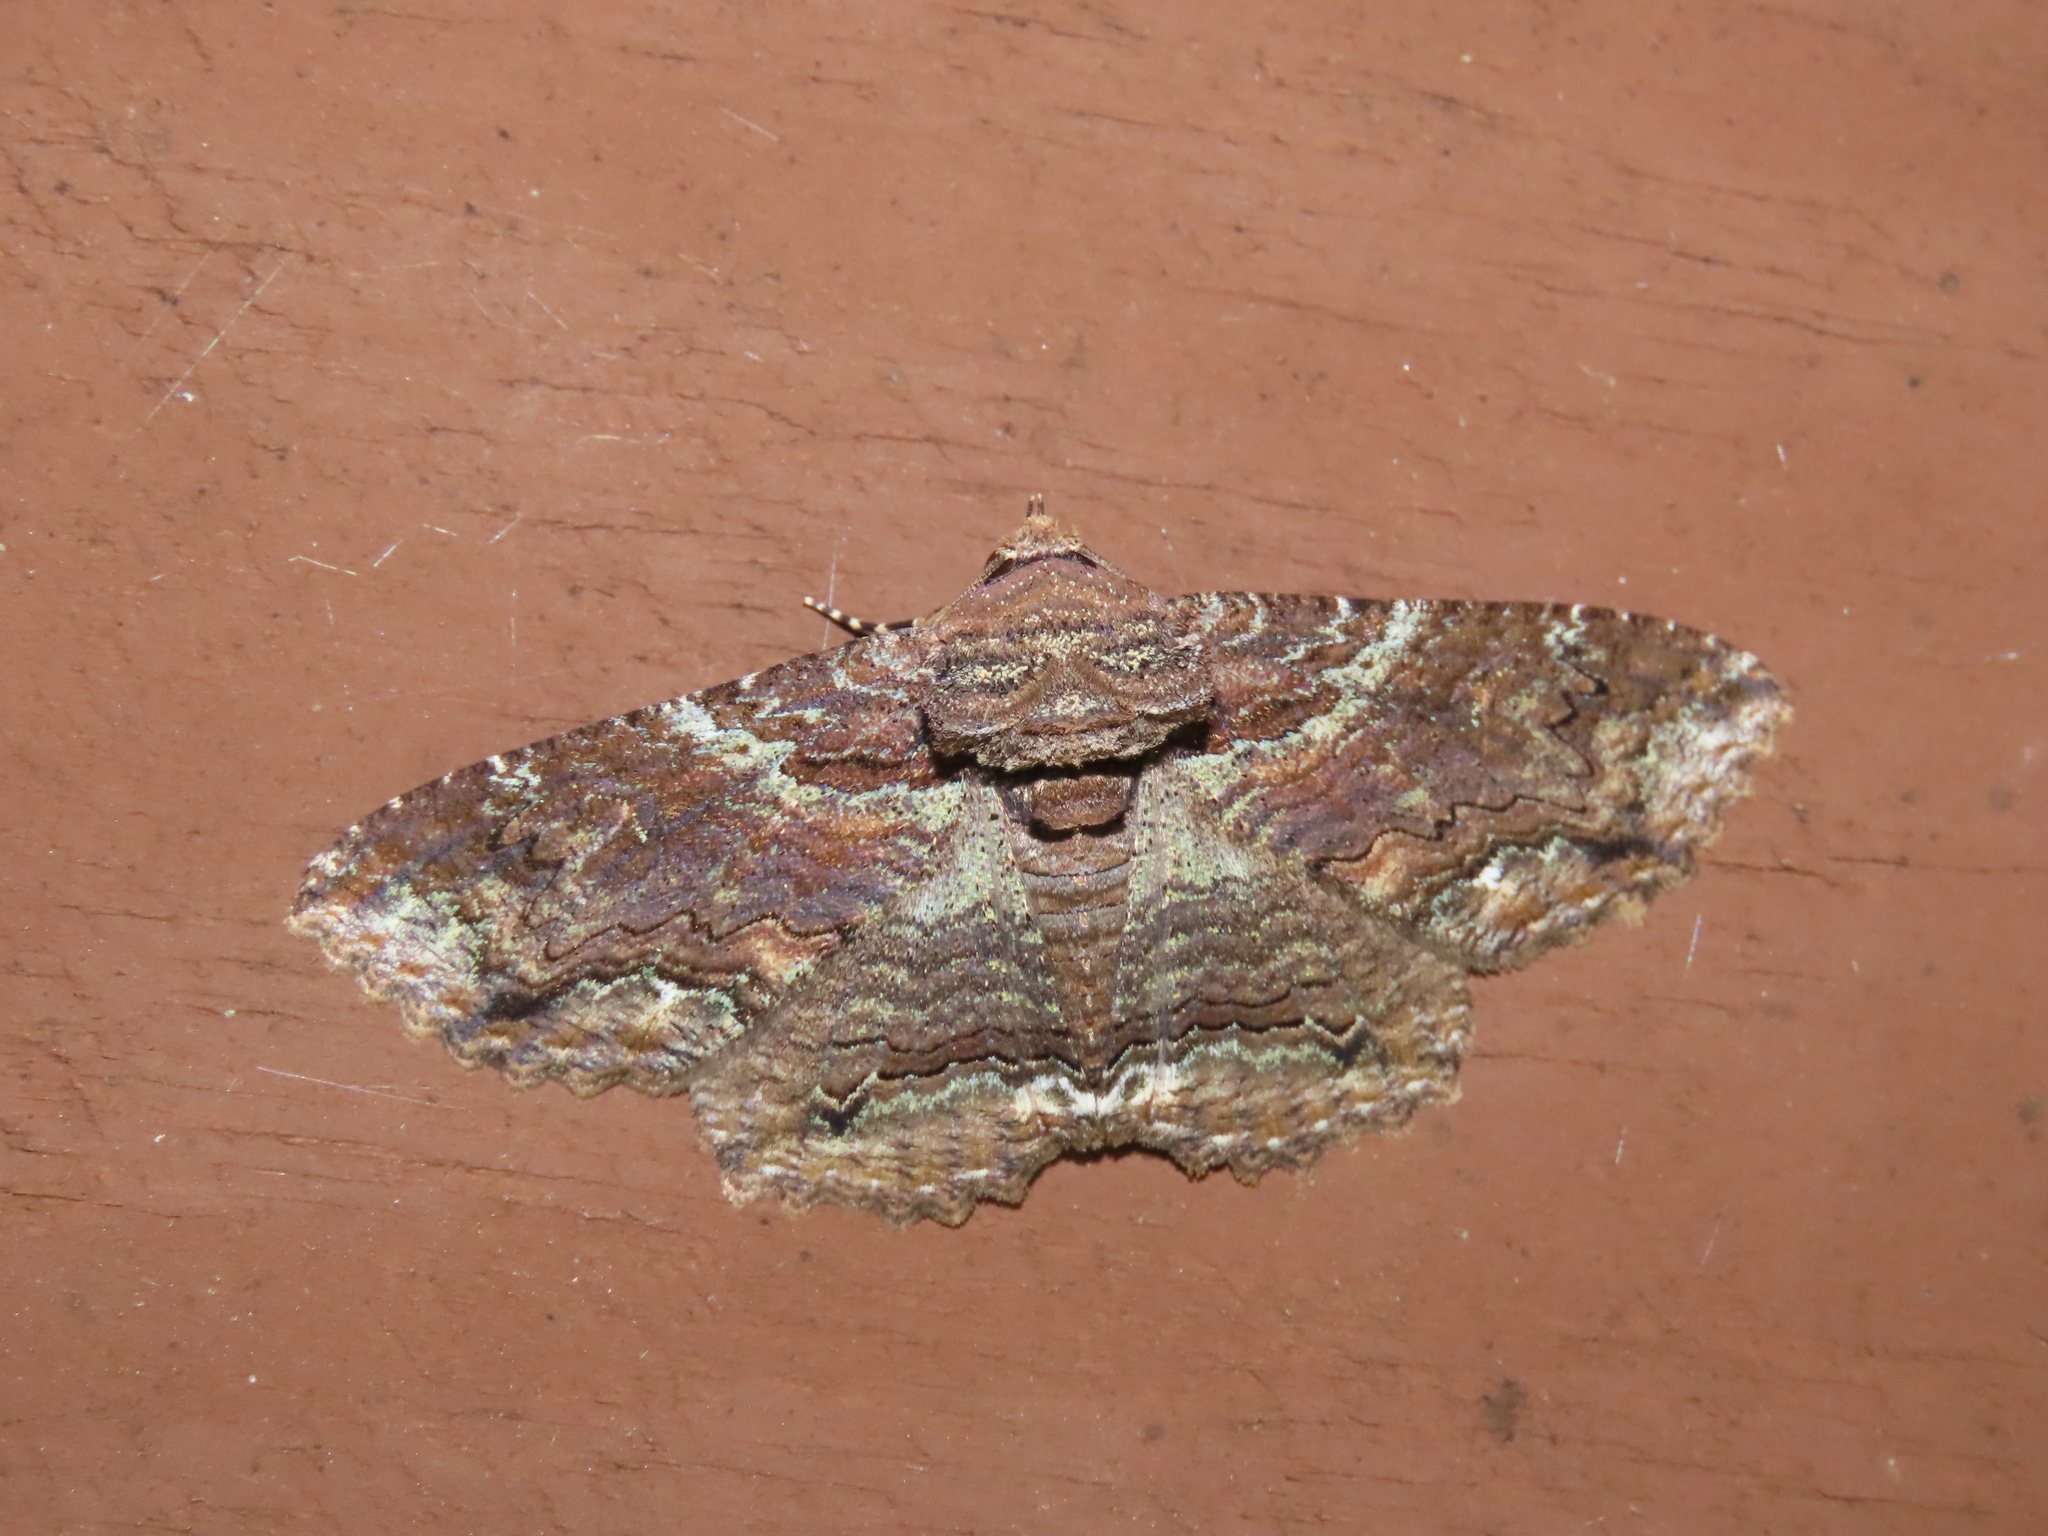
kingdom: Animalia
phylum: Arthropoda
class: Insecta
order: Lepidoptera
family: Erebidae
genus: Zale
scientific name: Zale lunata
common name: Lunate zale moth
